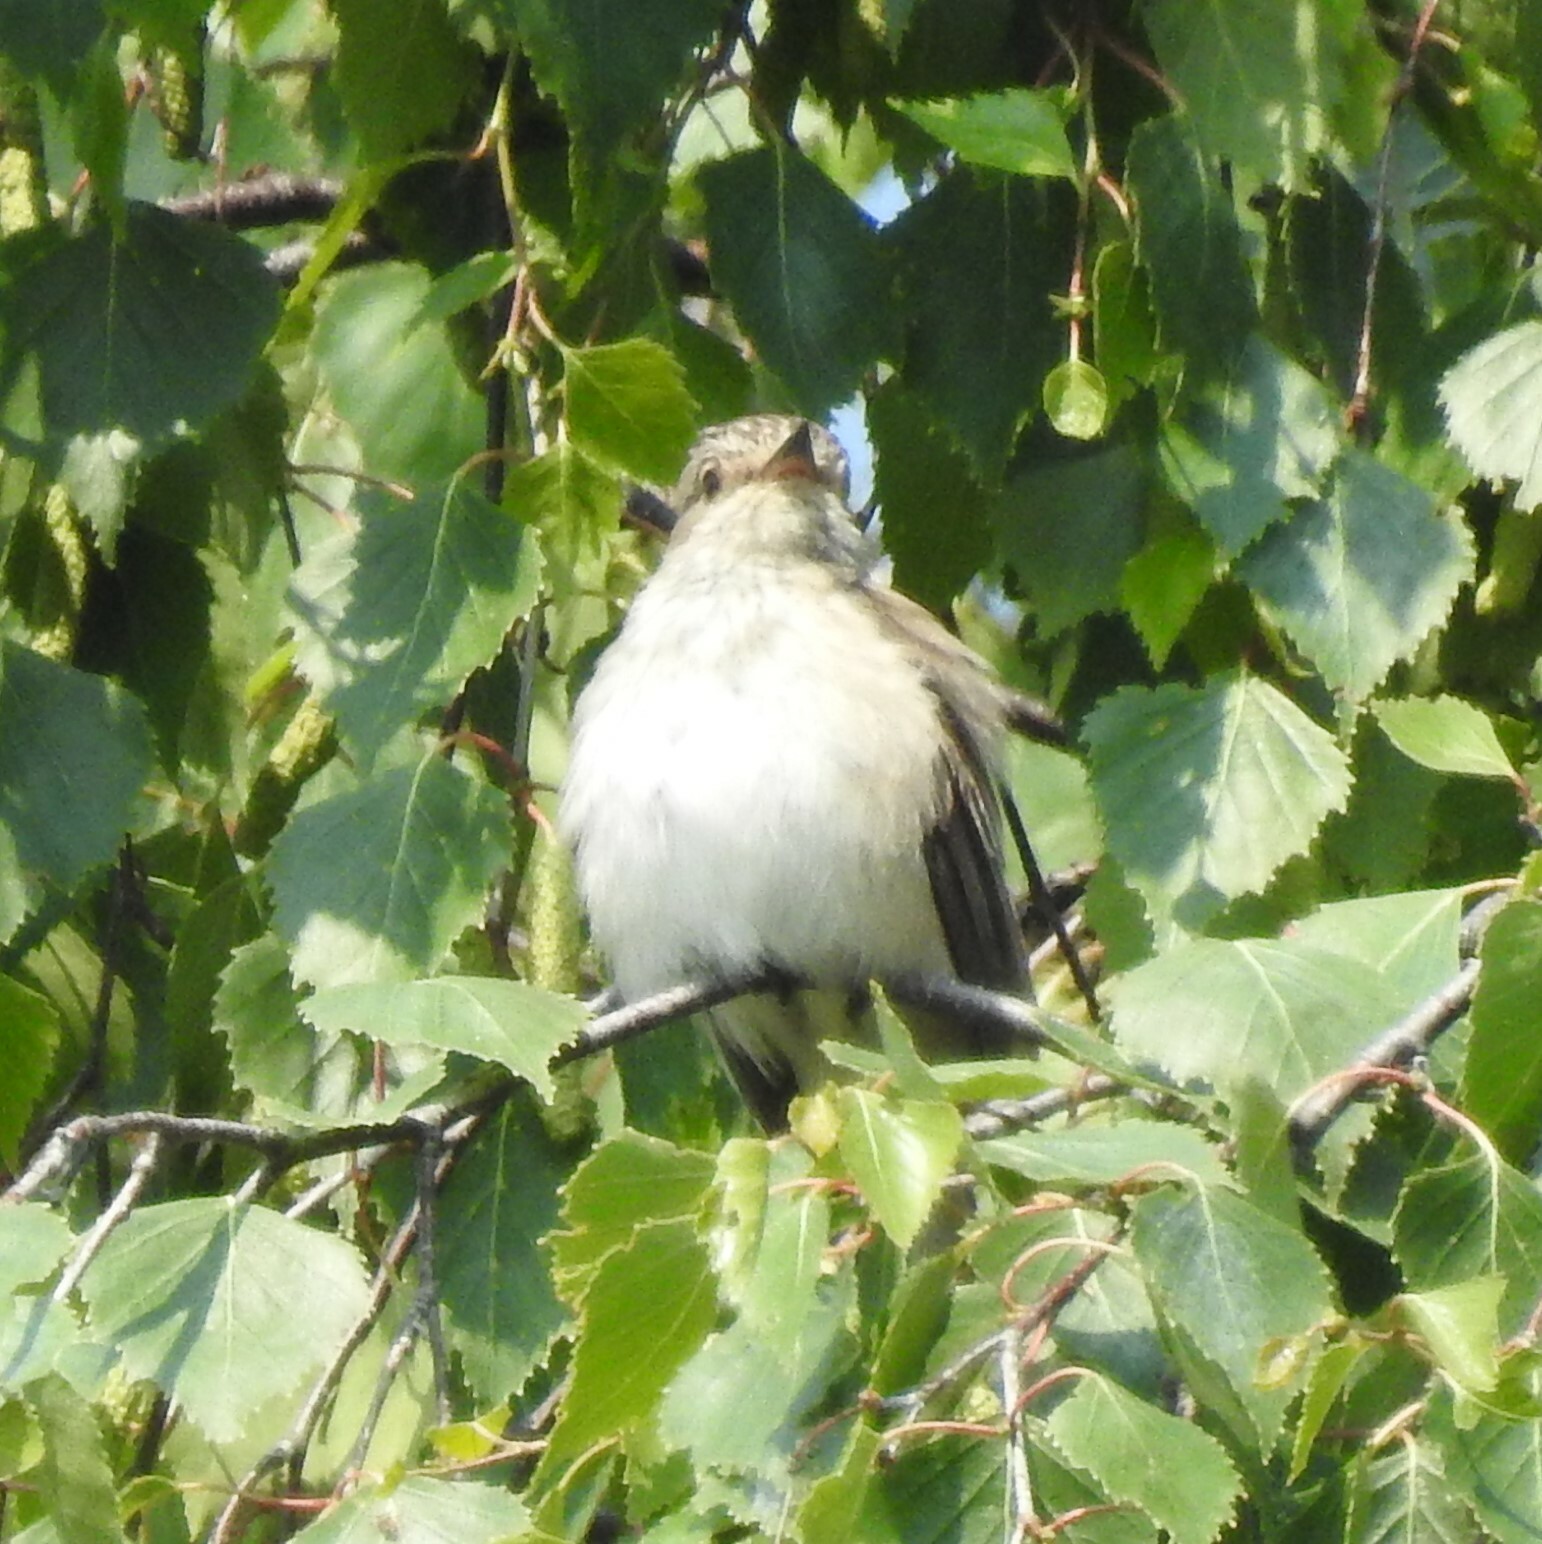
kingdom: Animalia
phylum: Chordata
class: Aves
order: Passeriformes
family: Muscicapidae
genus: Muscicapa
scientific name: Muscicapa striata
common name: Spotted flycatcher
